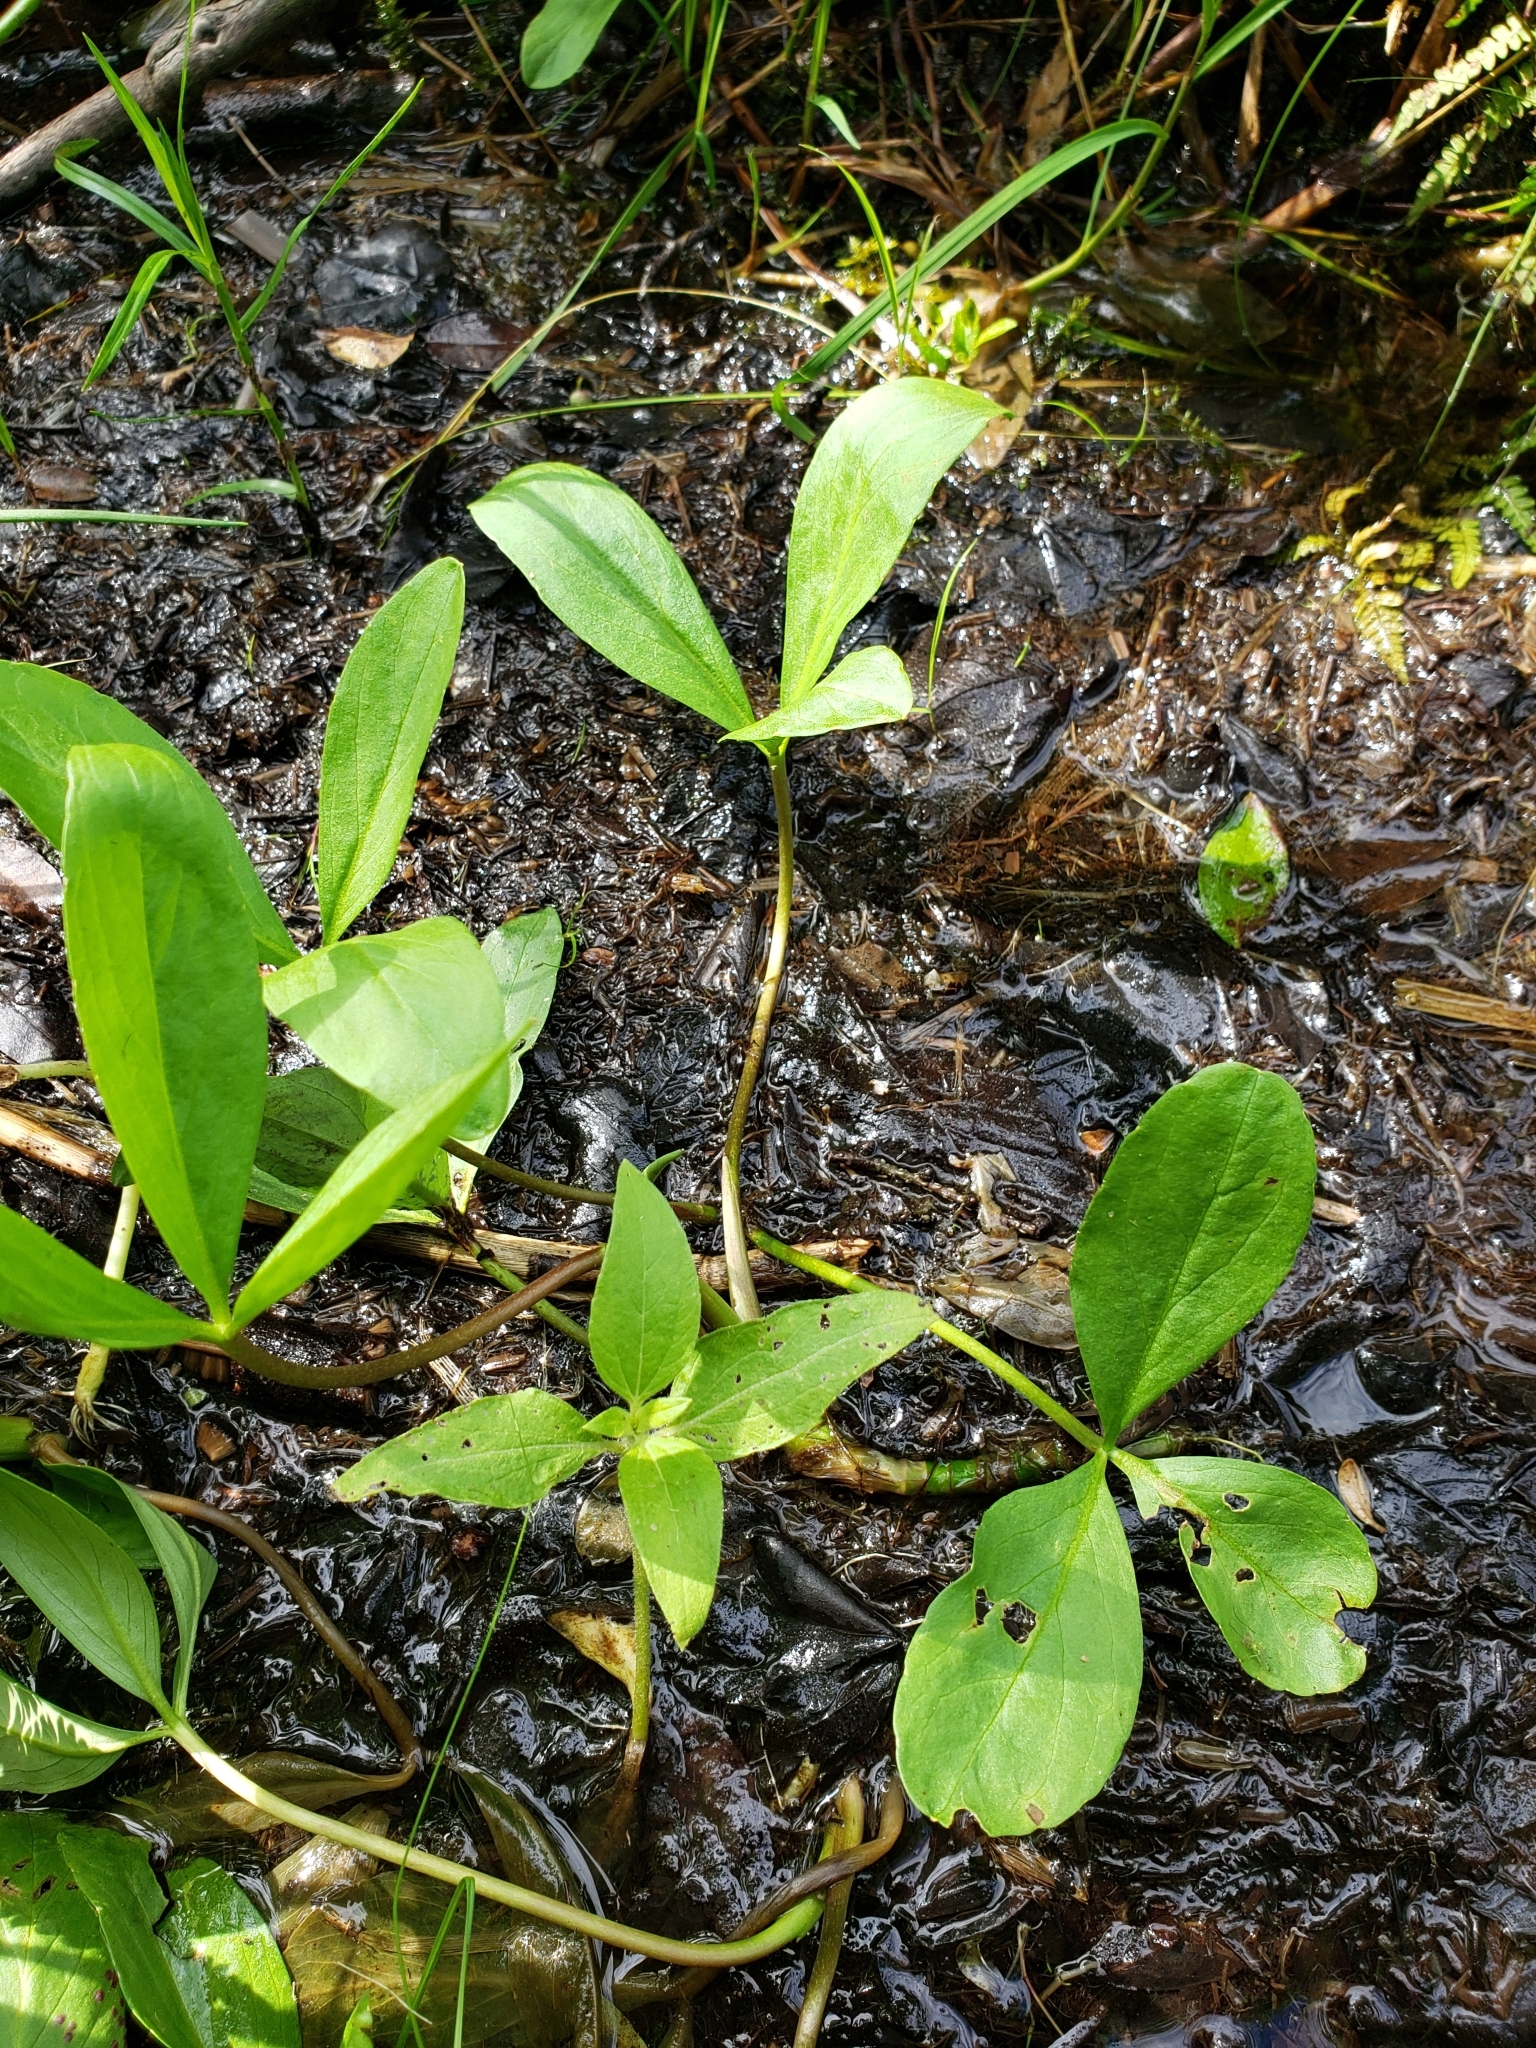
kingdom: Plantae
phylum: Tracheophyta
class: Magnoliopsida
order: Asterales
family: Menyanthaceae
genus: Menyanthes
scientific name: Menyanthes trifoliata
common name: Bogbean
